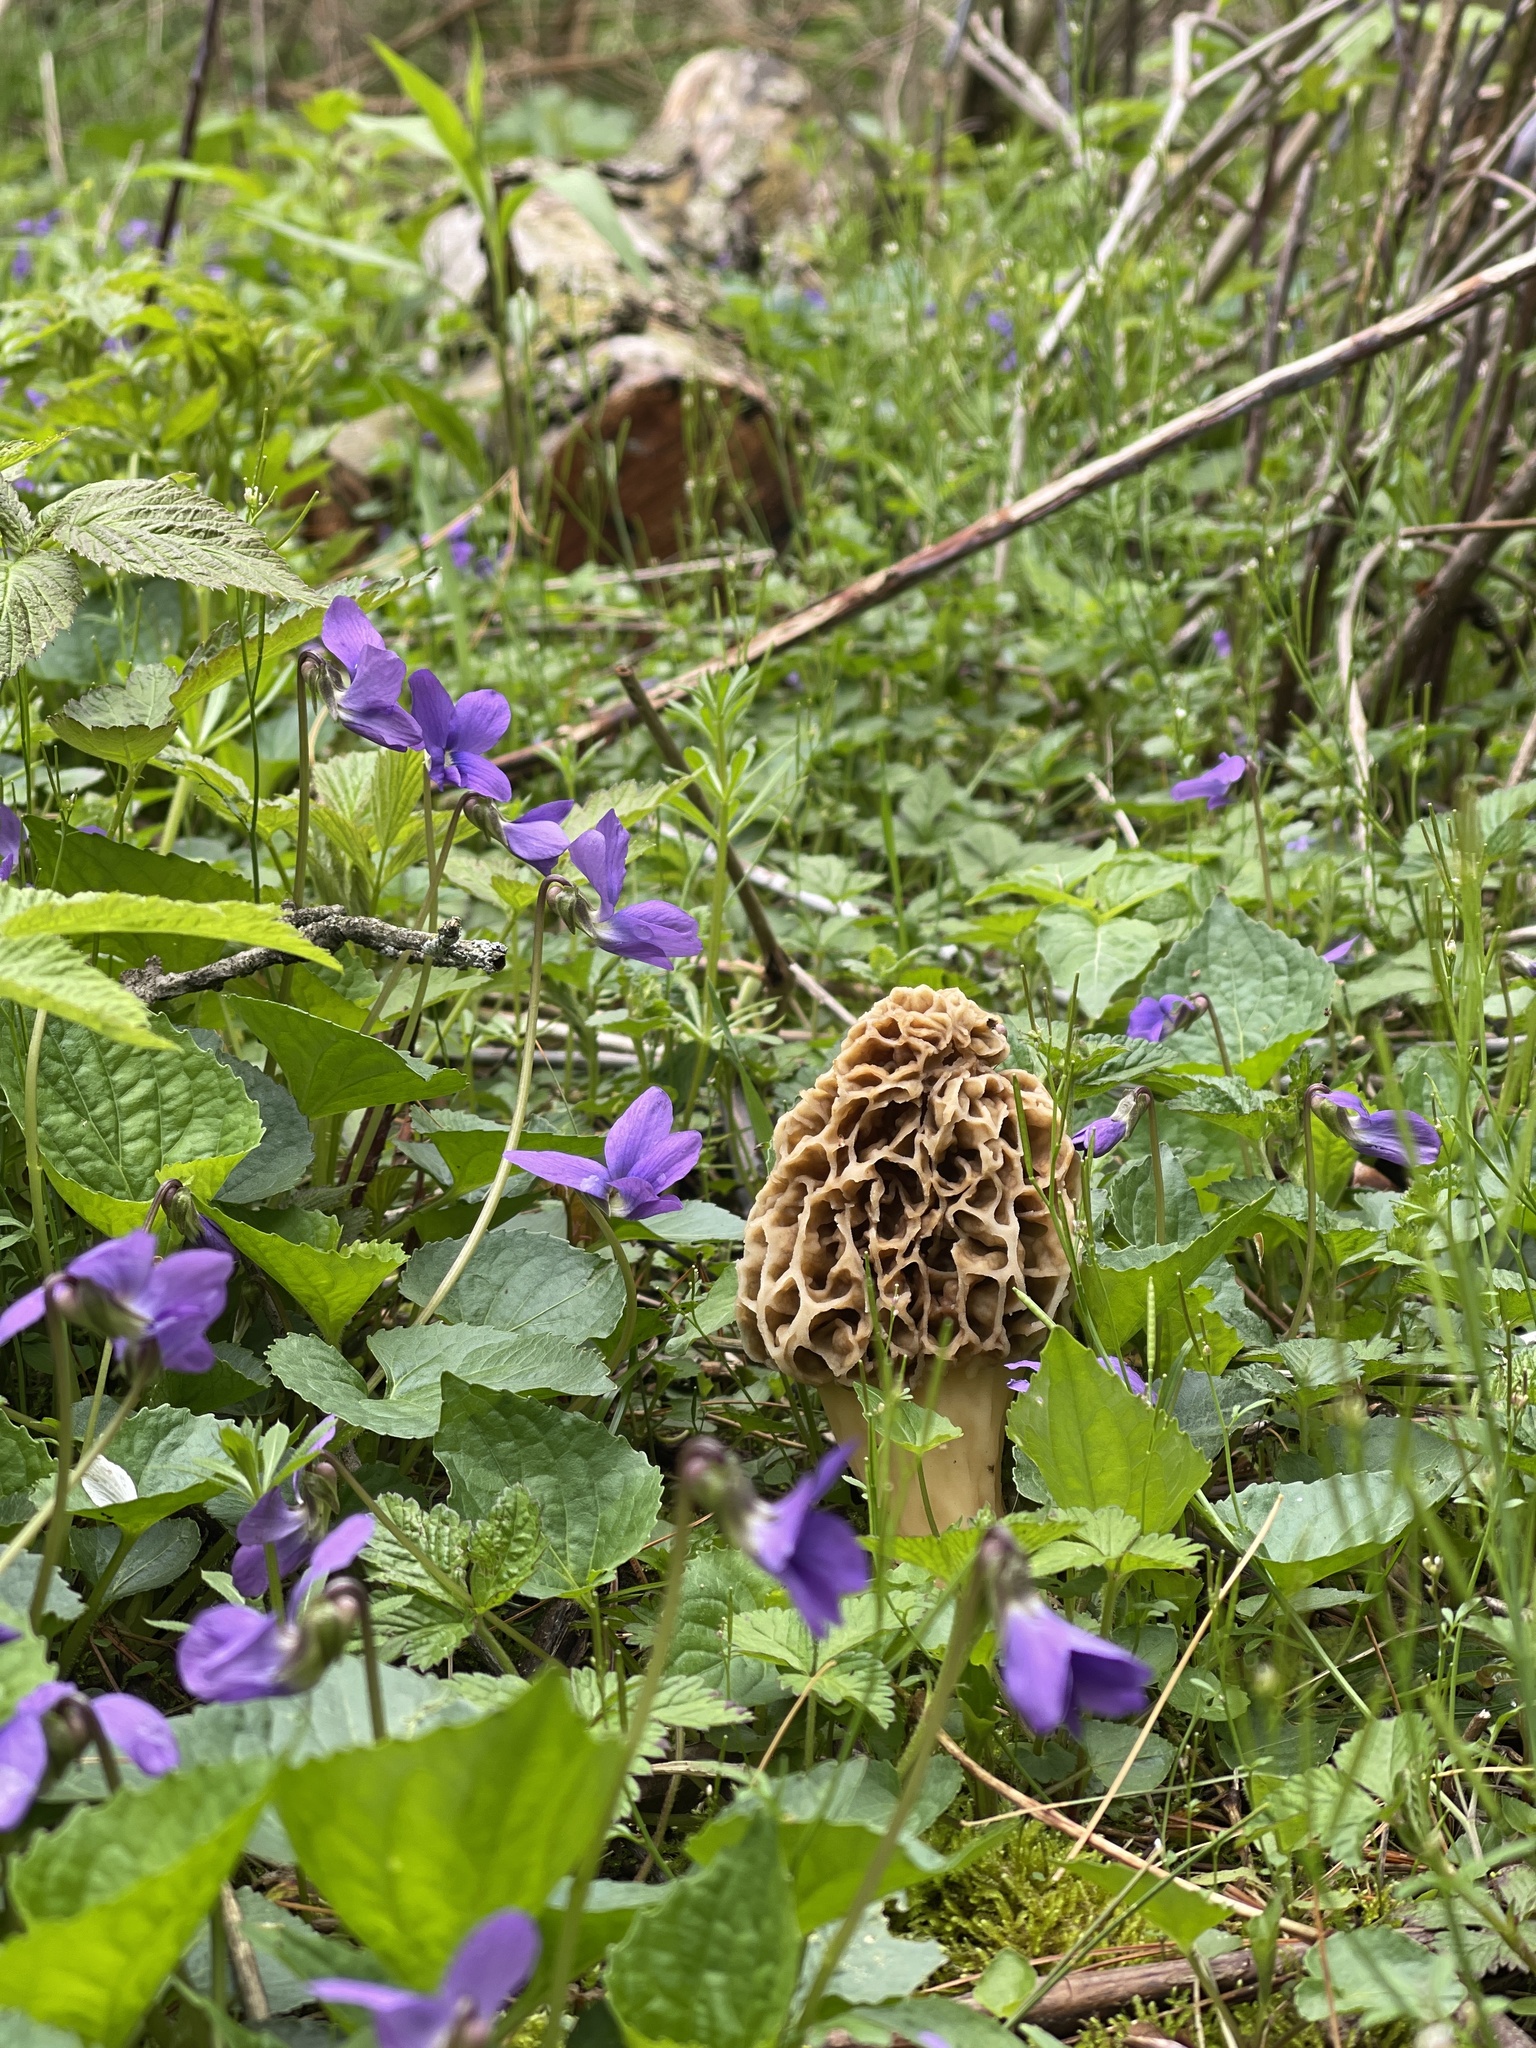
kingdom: Fungi
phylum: Ascomycota
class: Pezizomycetes
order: Pezizales
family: Morchellaceae
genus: Morchella
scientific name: Morchella americana
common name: White morel
